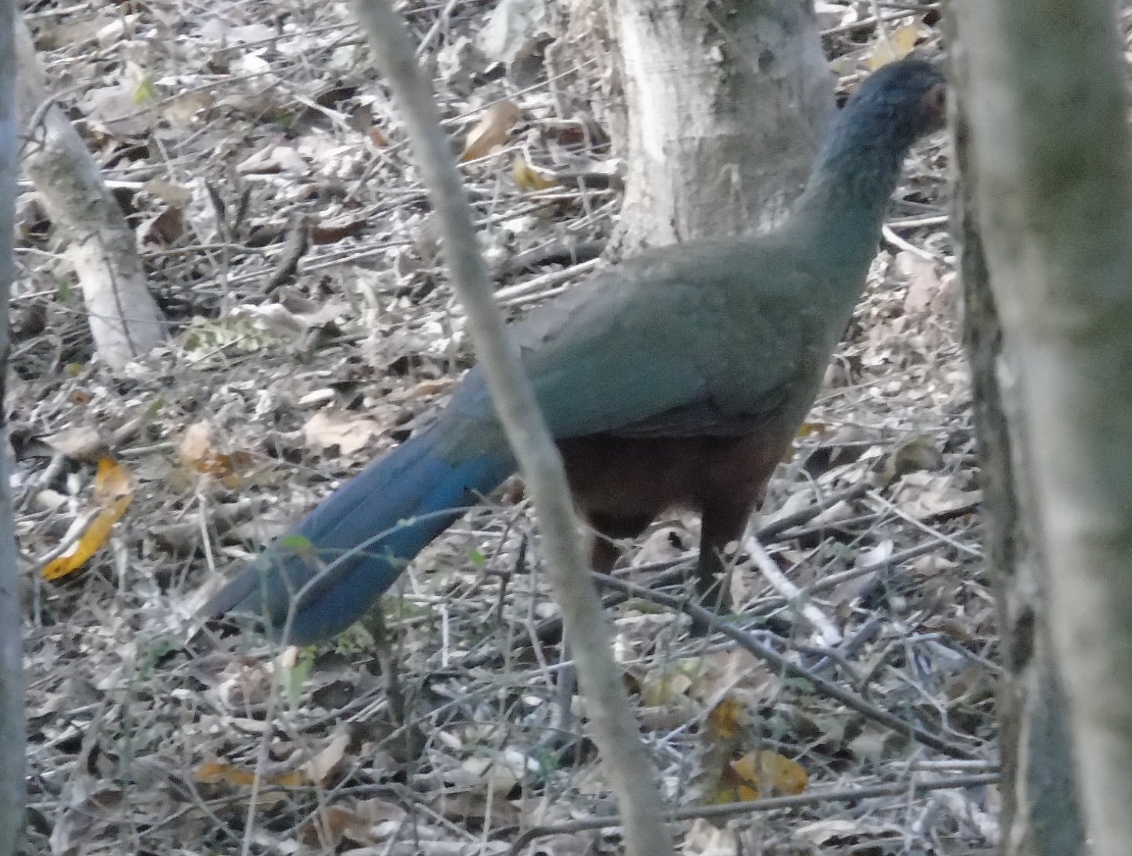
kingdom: Animalia
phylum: Chordata
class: Aves
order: Galliformes
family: Cracidae
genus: Ortalis
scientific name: Ortalis wagleri
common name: Rufous-bellied chachalaca
